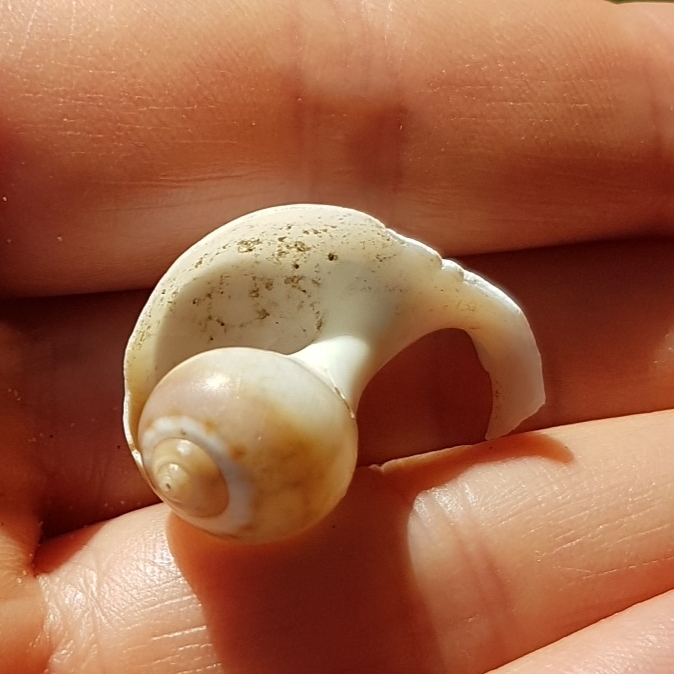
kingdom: Animalia
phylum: Mollusca
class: Gastropoda
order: Littorinimorpha
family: Naticidae
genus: Euspira
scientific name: Euspira catena
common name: Necklace shell
